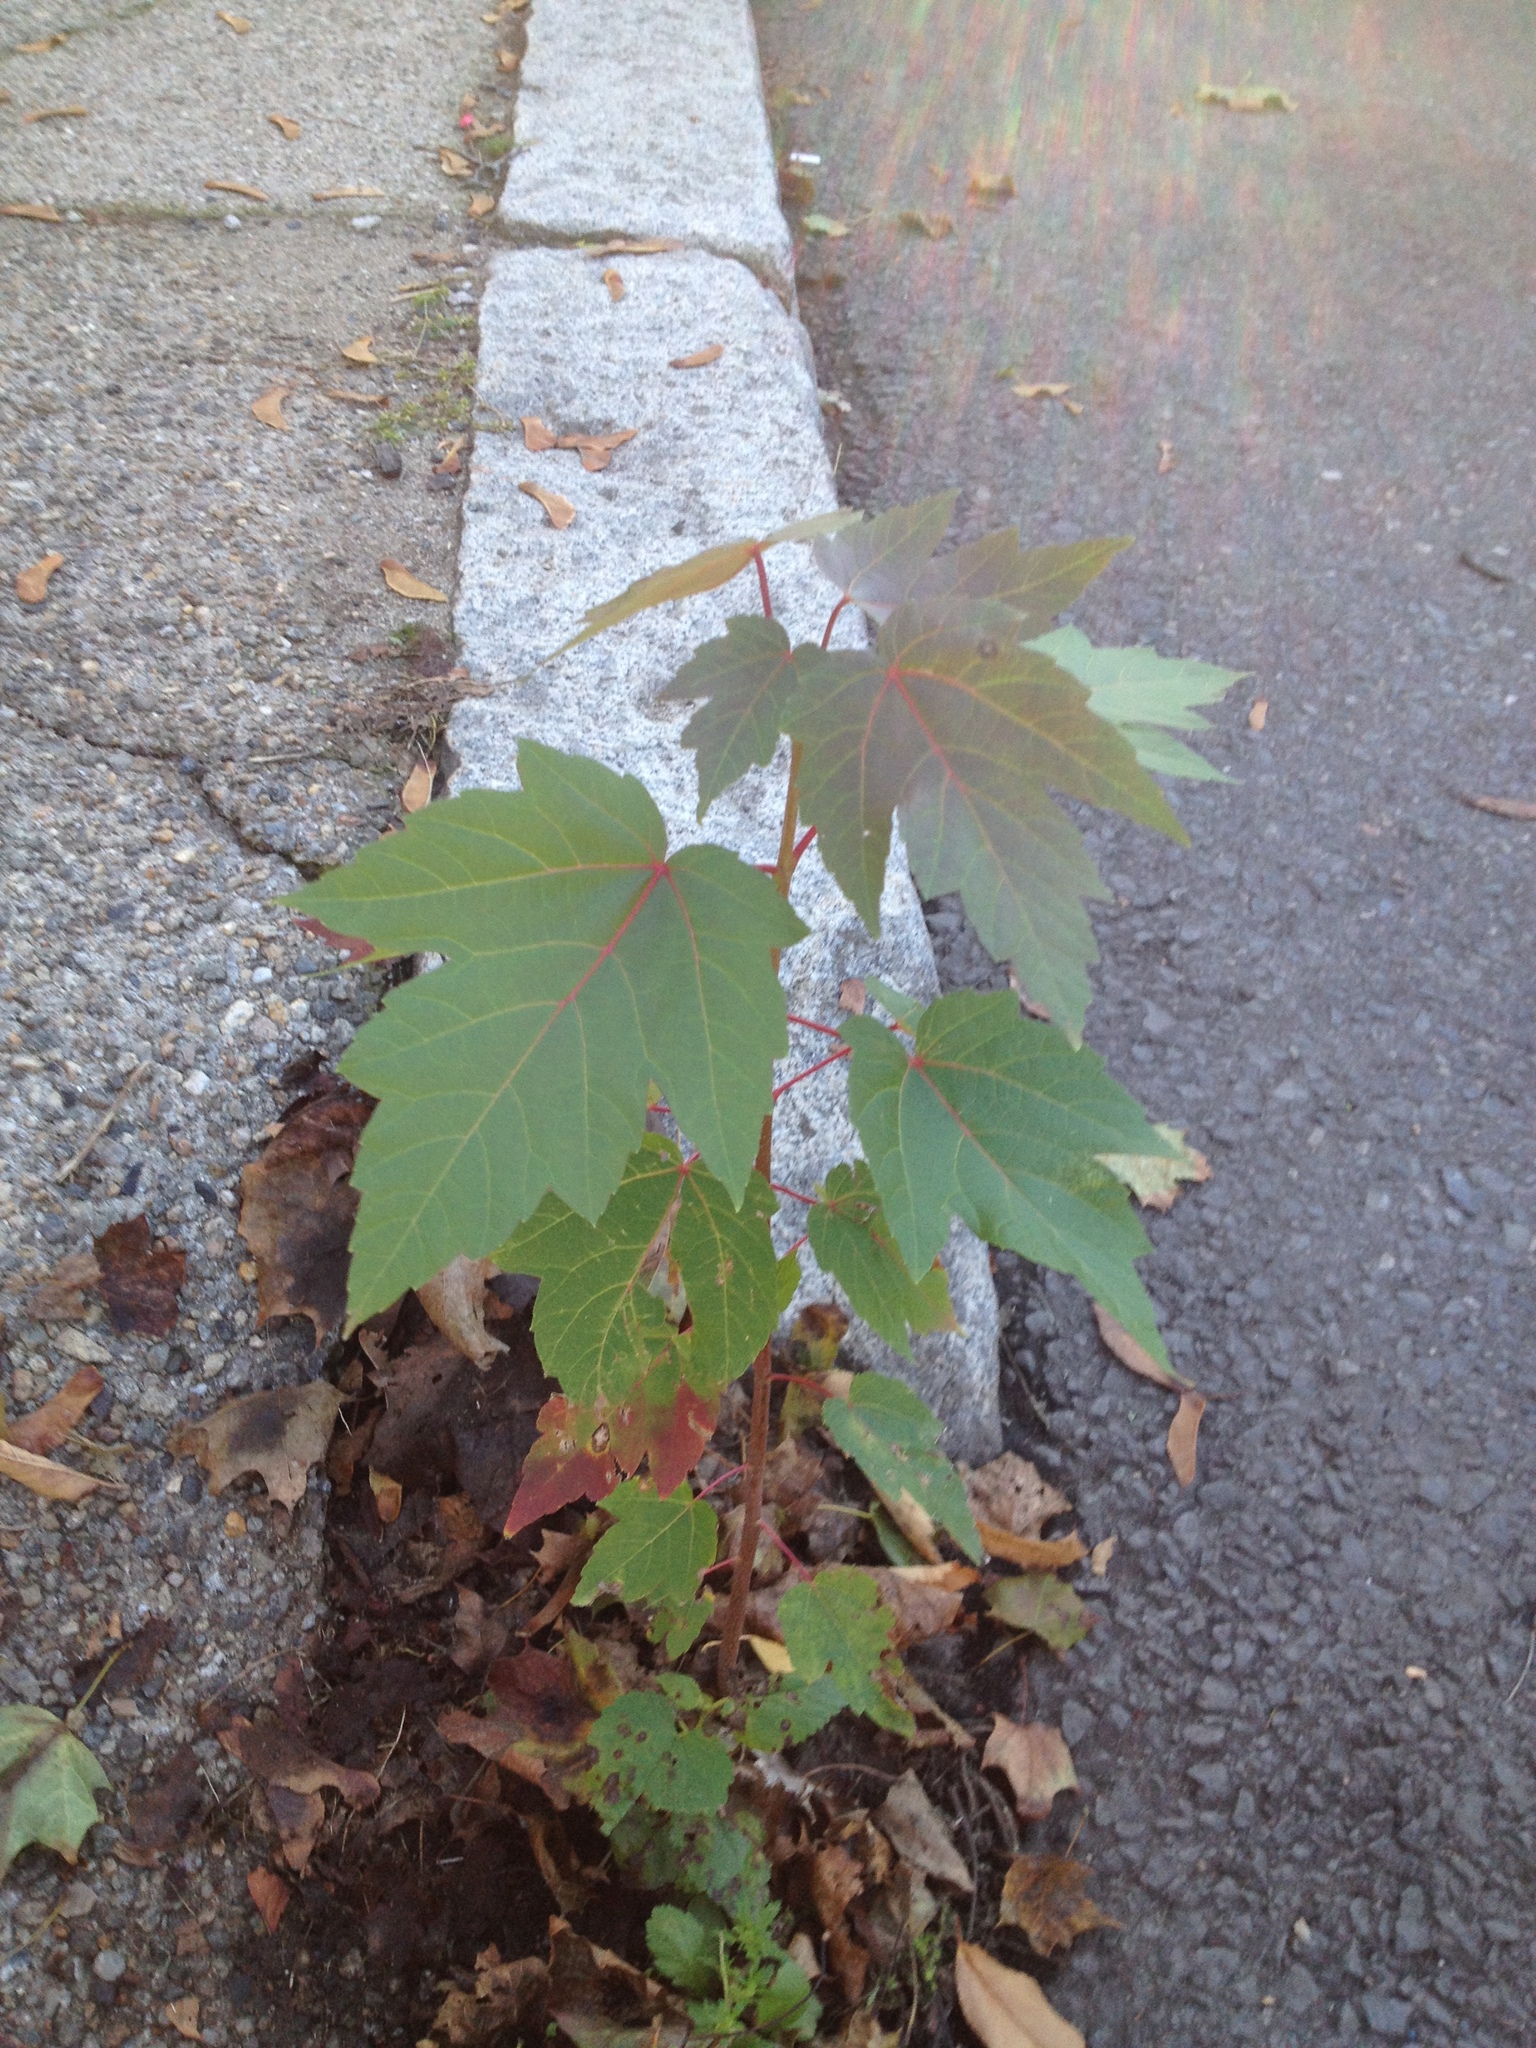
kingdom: Plantae
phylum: Tracheophyta
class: Magnoliopsida
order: Sapindales
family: Sapindaceae
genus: Acer
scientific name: Acer rubrum
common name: Red maple
